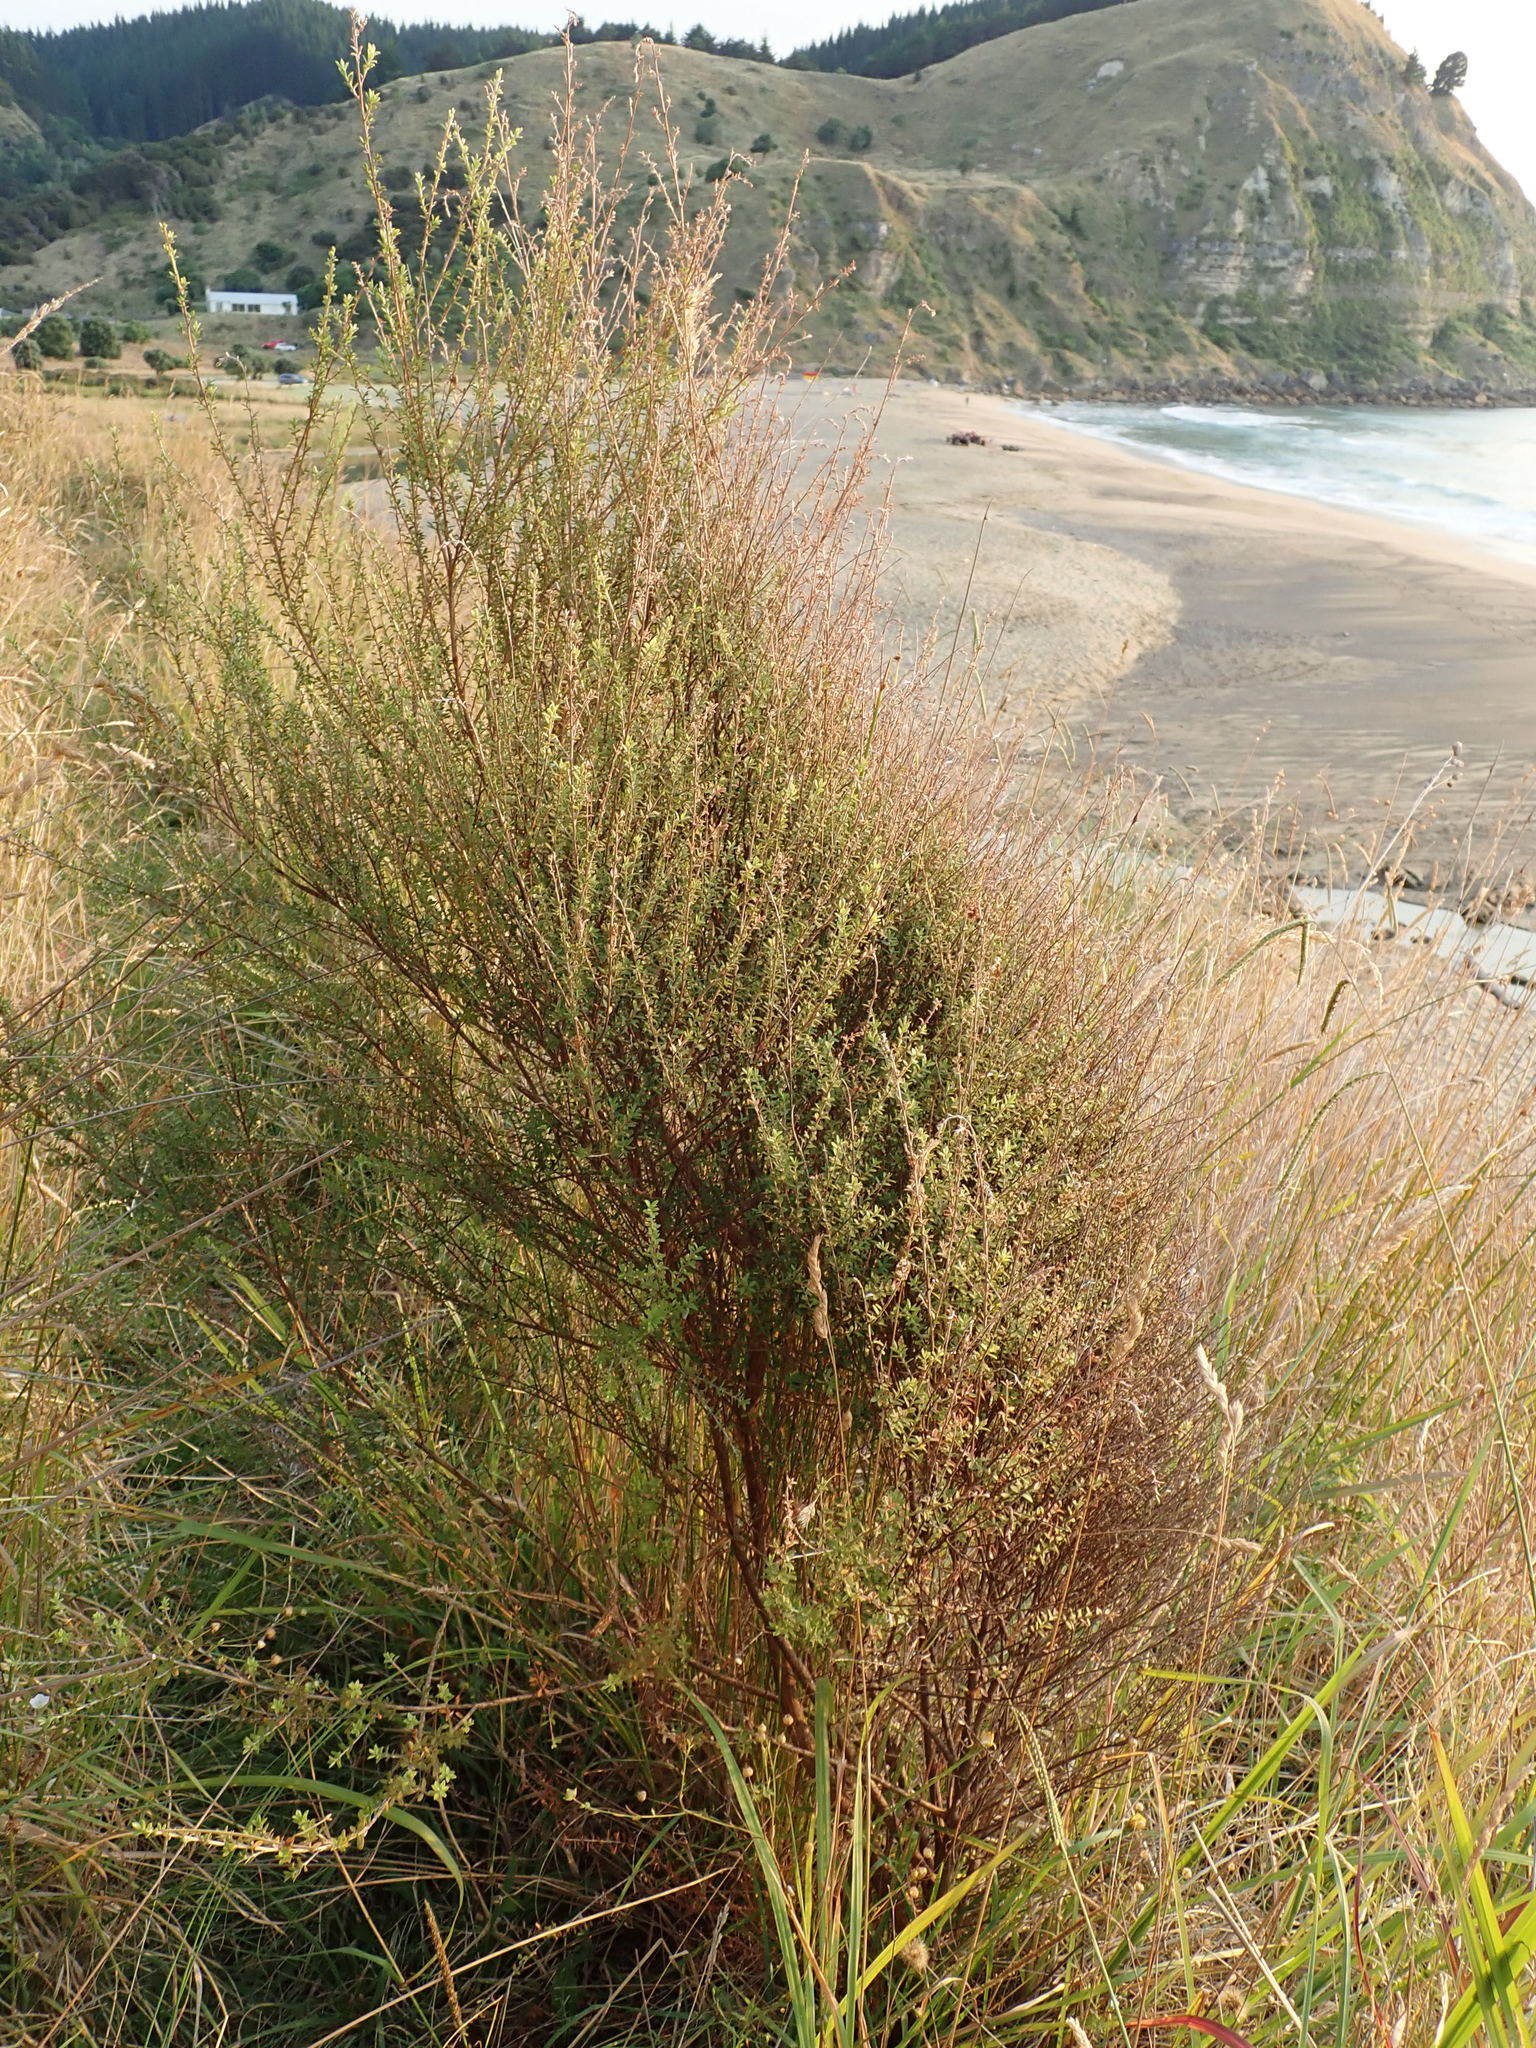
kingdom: Plantae
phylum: Tracheophyta
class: Magnoliopsida
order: Myrtales
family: Myrtaceae
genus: Leptospermum
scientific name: Leptospermum scoparium
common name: Broom tea-tree
